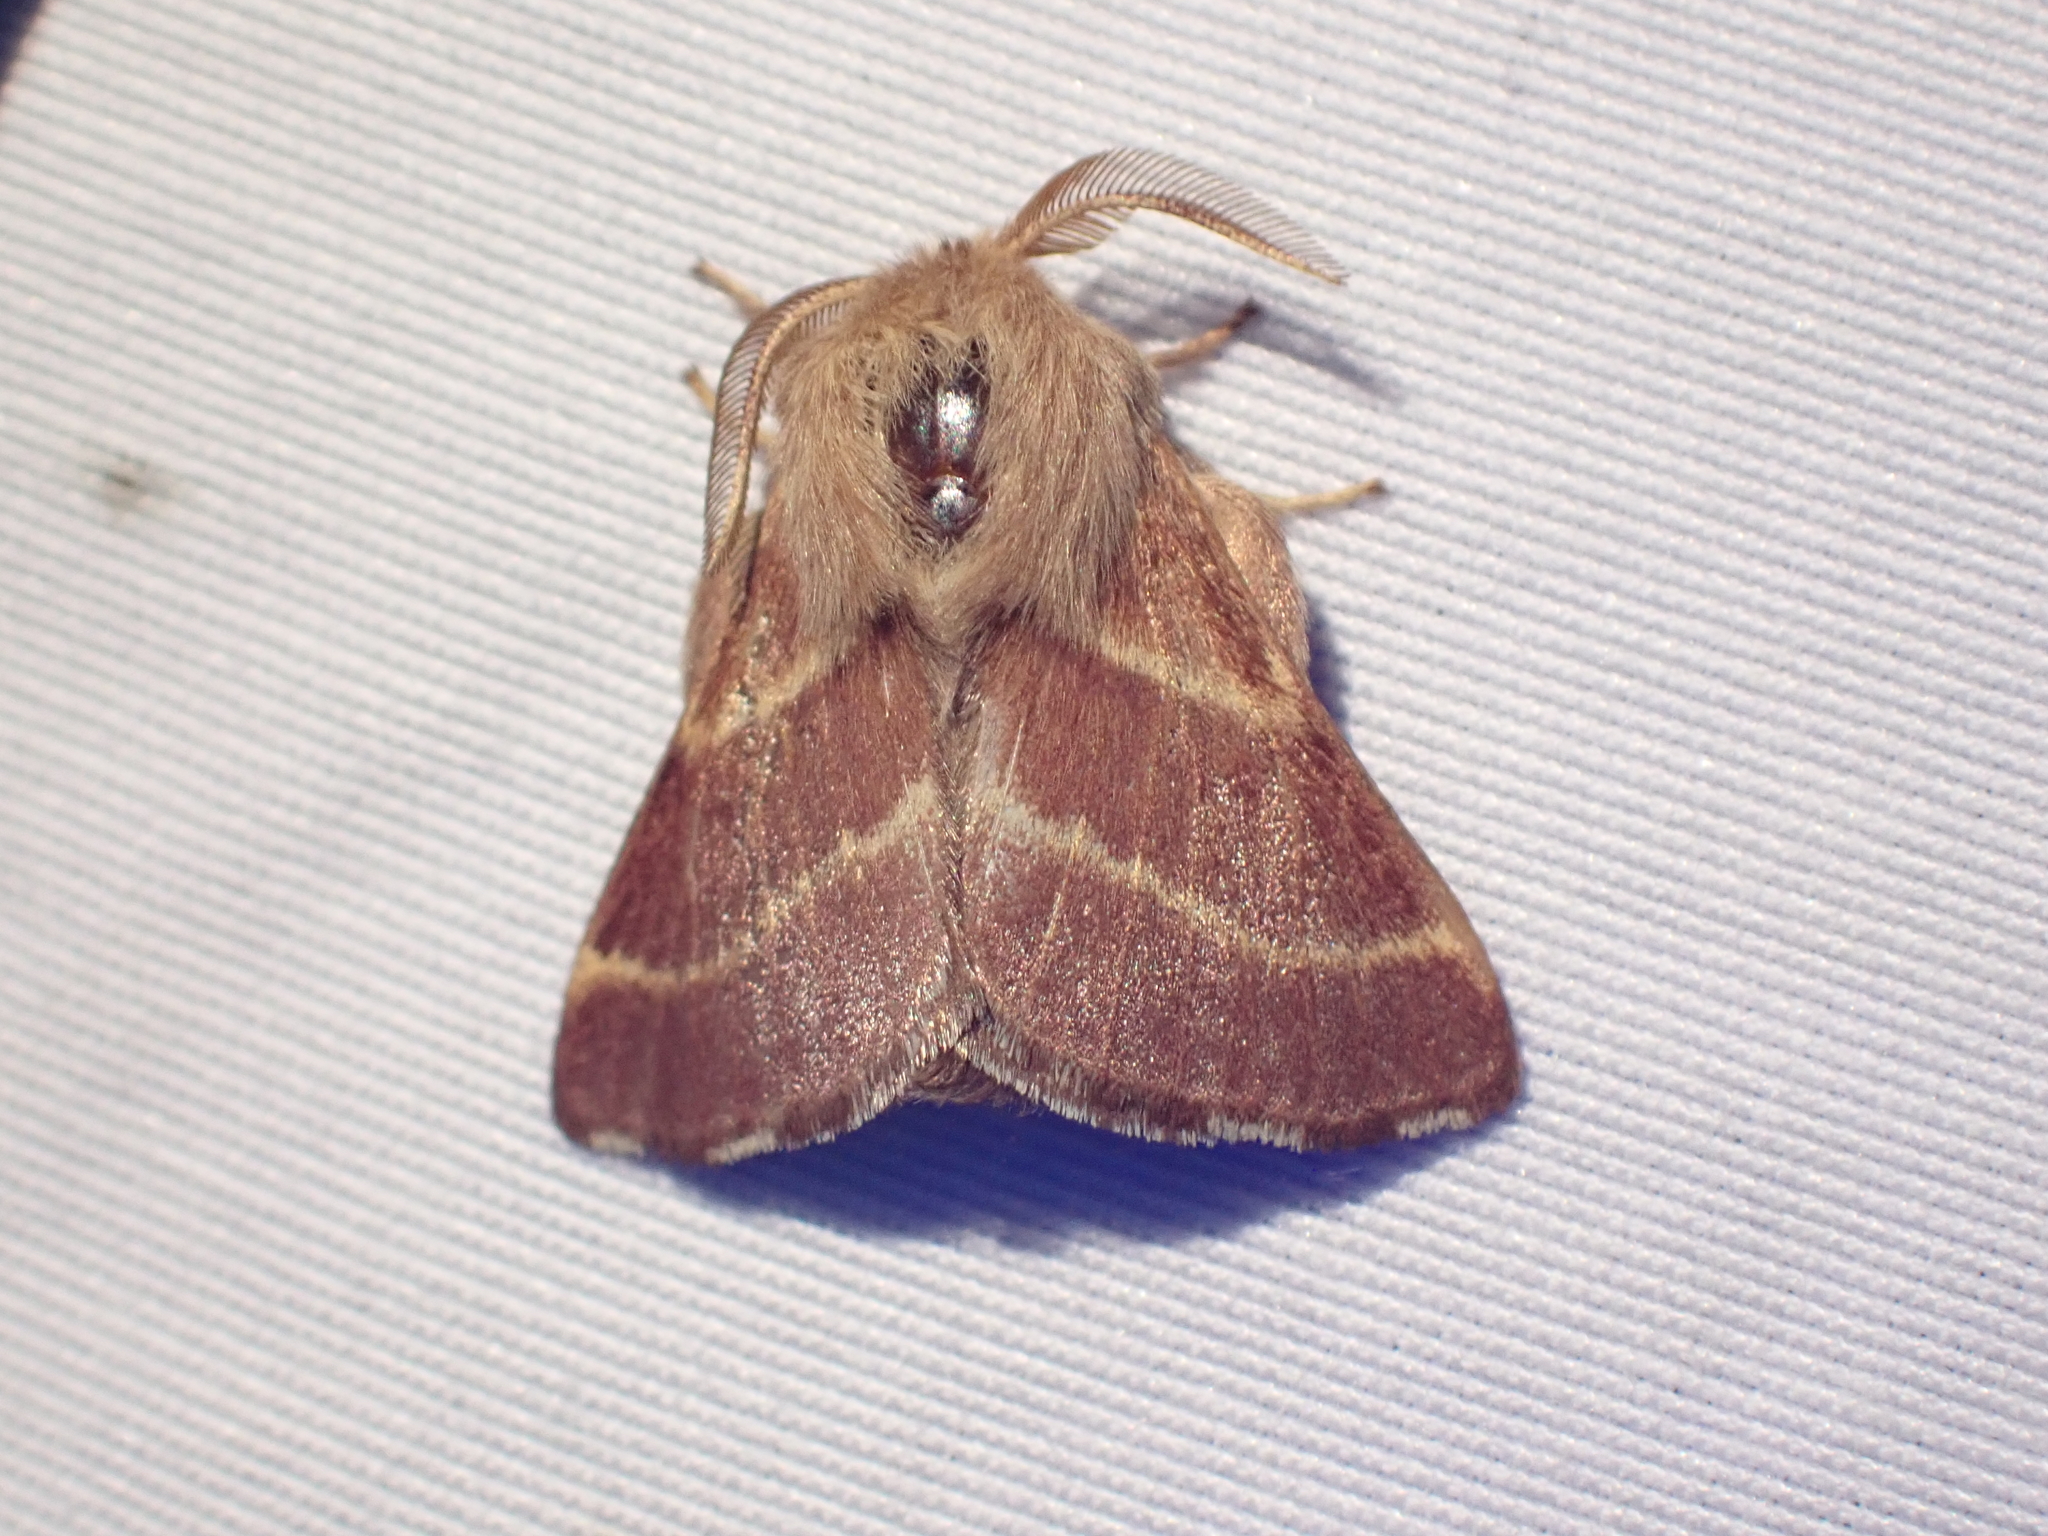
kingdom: Animalia
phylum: Arthropoda
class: Insecta
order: Lepidoptera
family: Lasiocampidae
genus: Malacosoma
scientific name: Malacosoma californica
